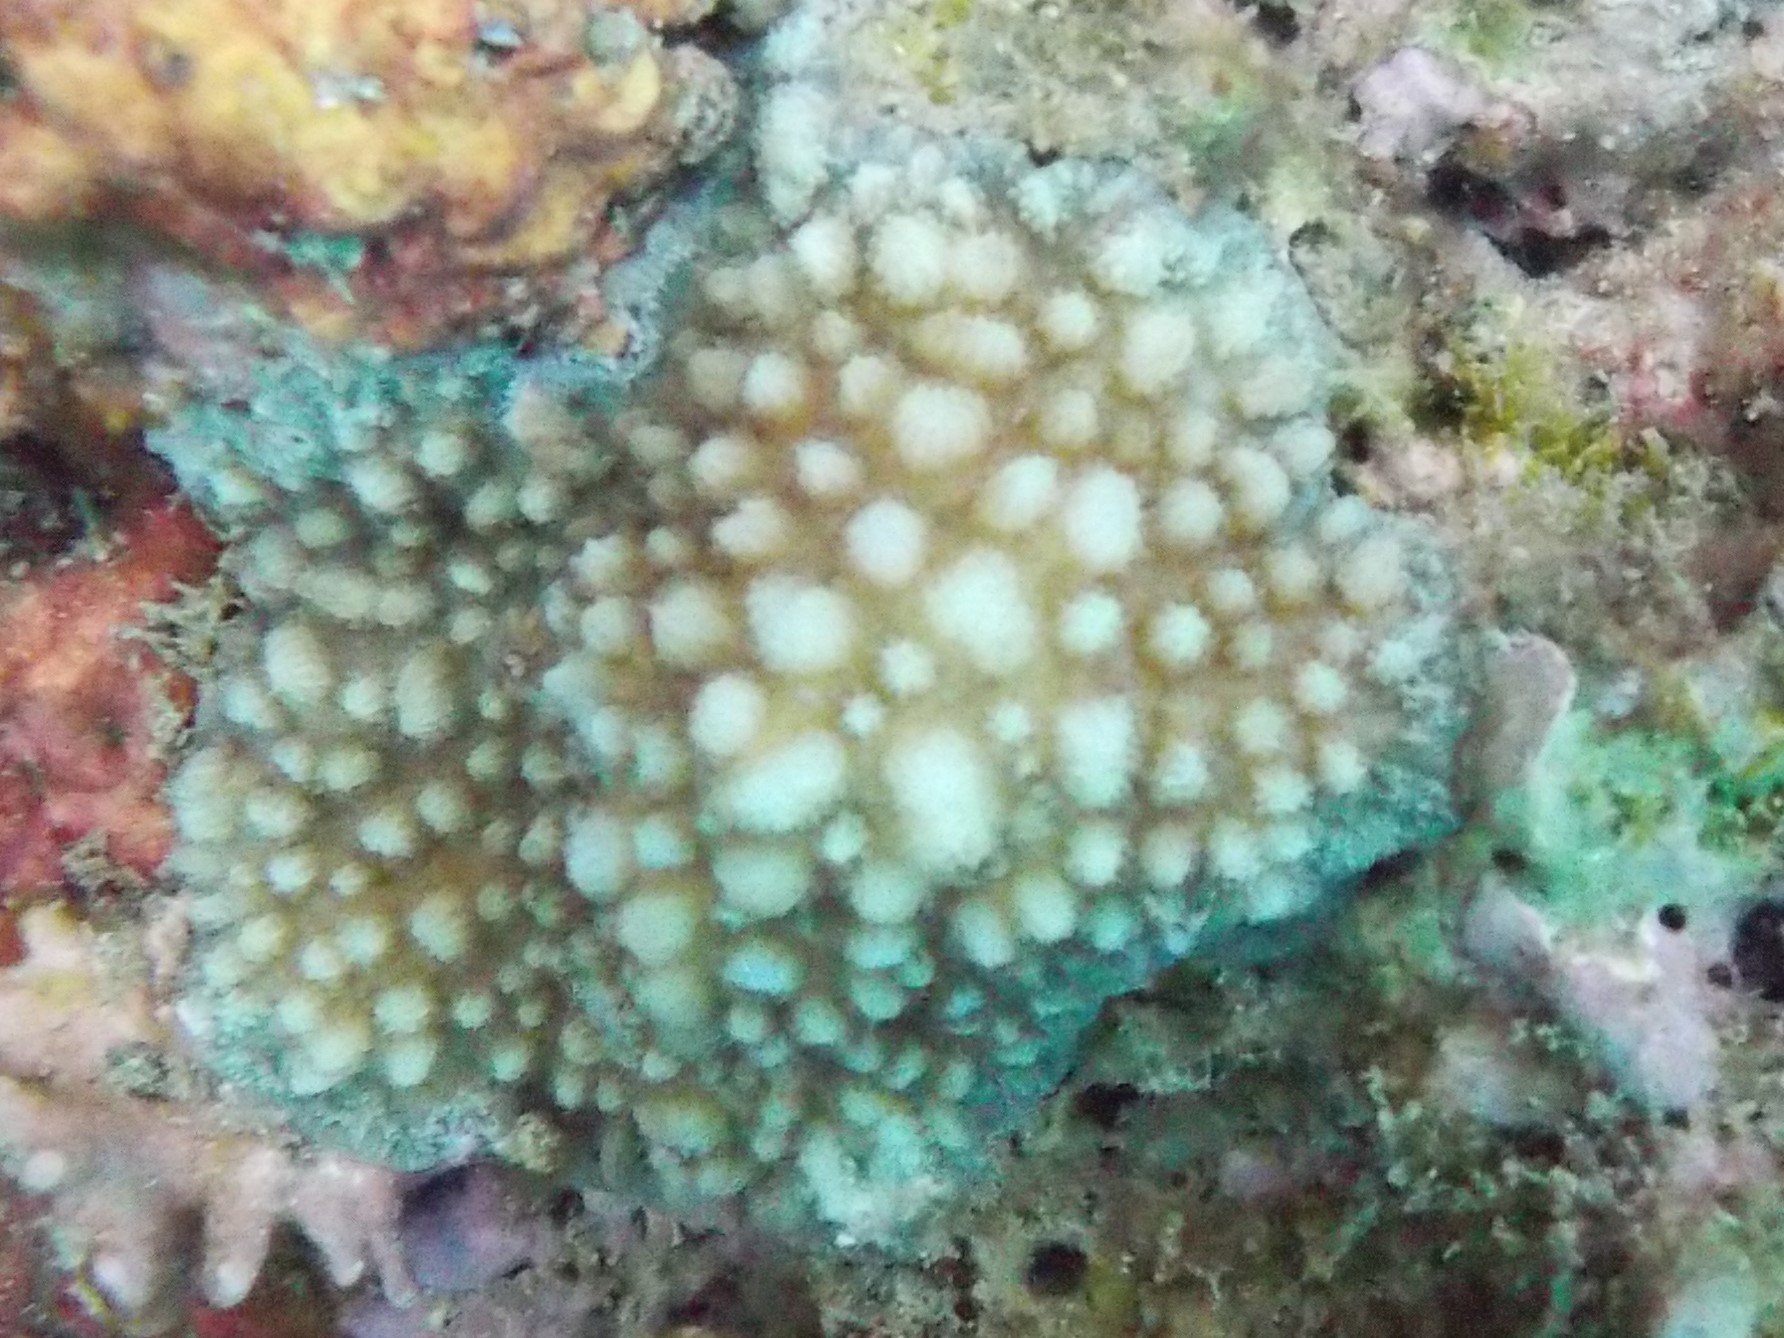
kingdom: Animalia
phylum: Cnidaria
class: Anthozoa
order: Scleractinia
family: Merulinidae
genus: Hydnophora
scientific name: Hydnophora microconos
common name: Spine coral
